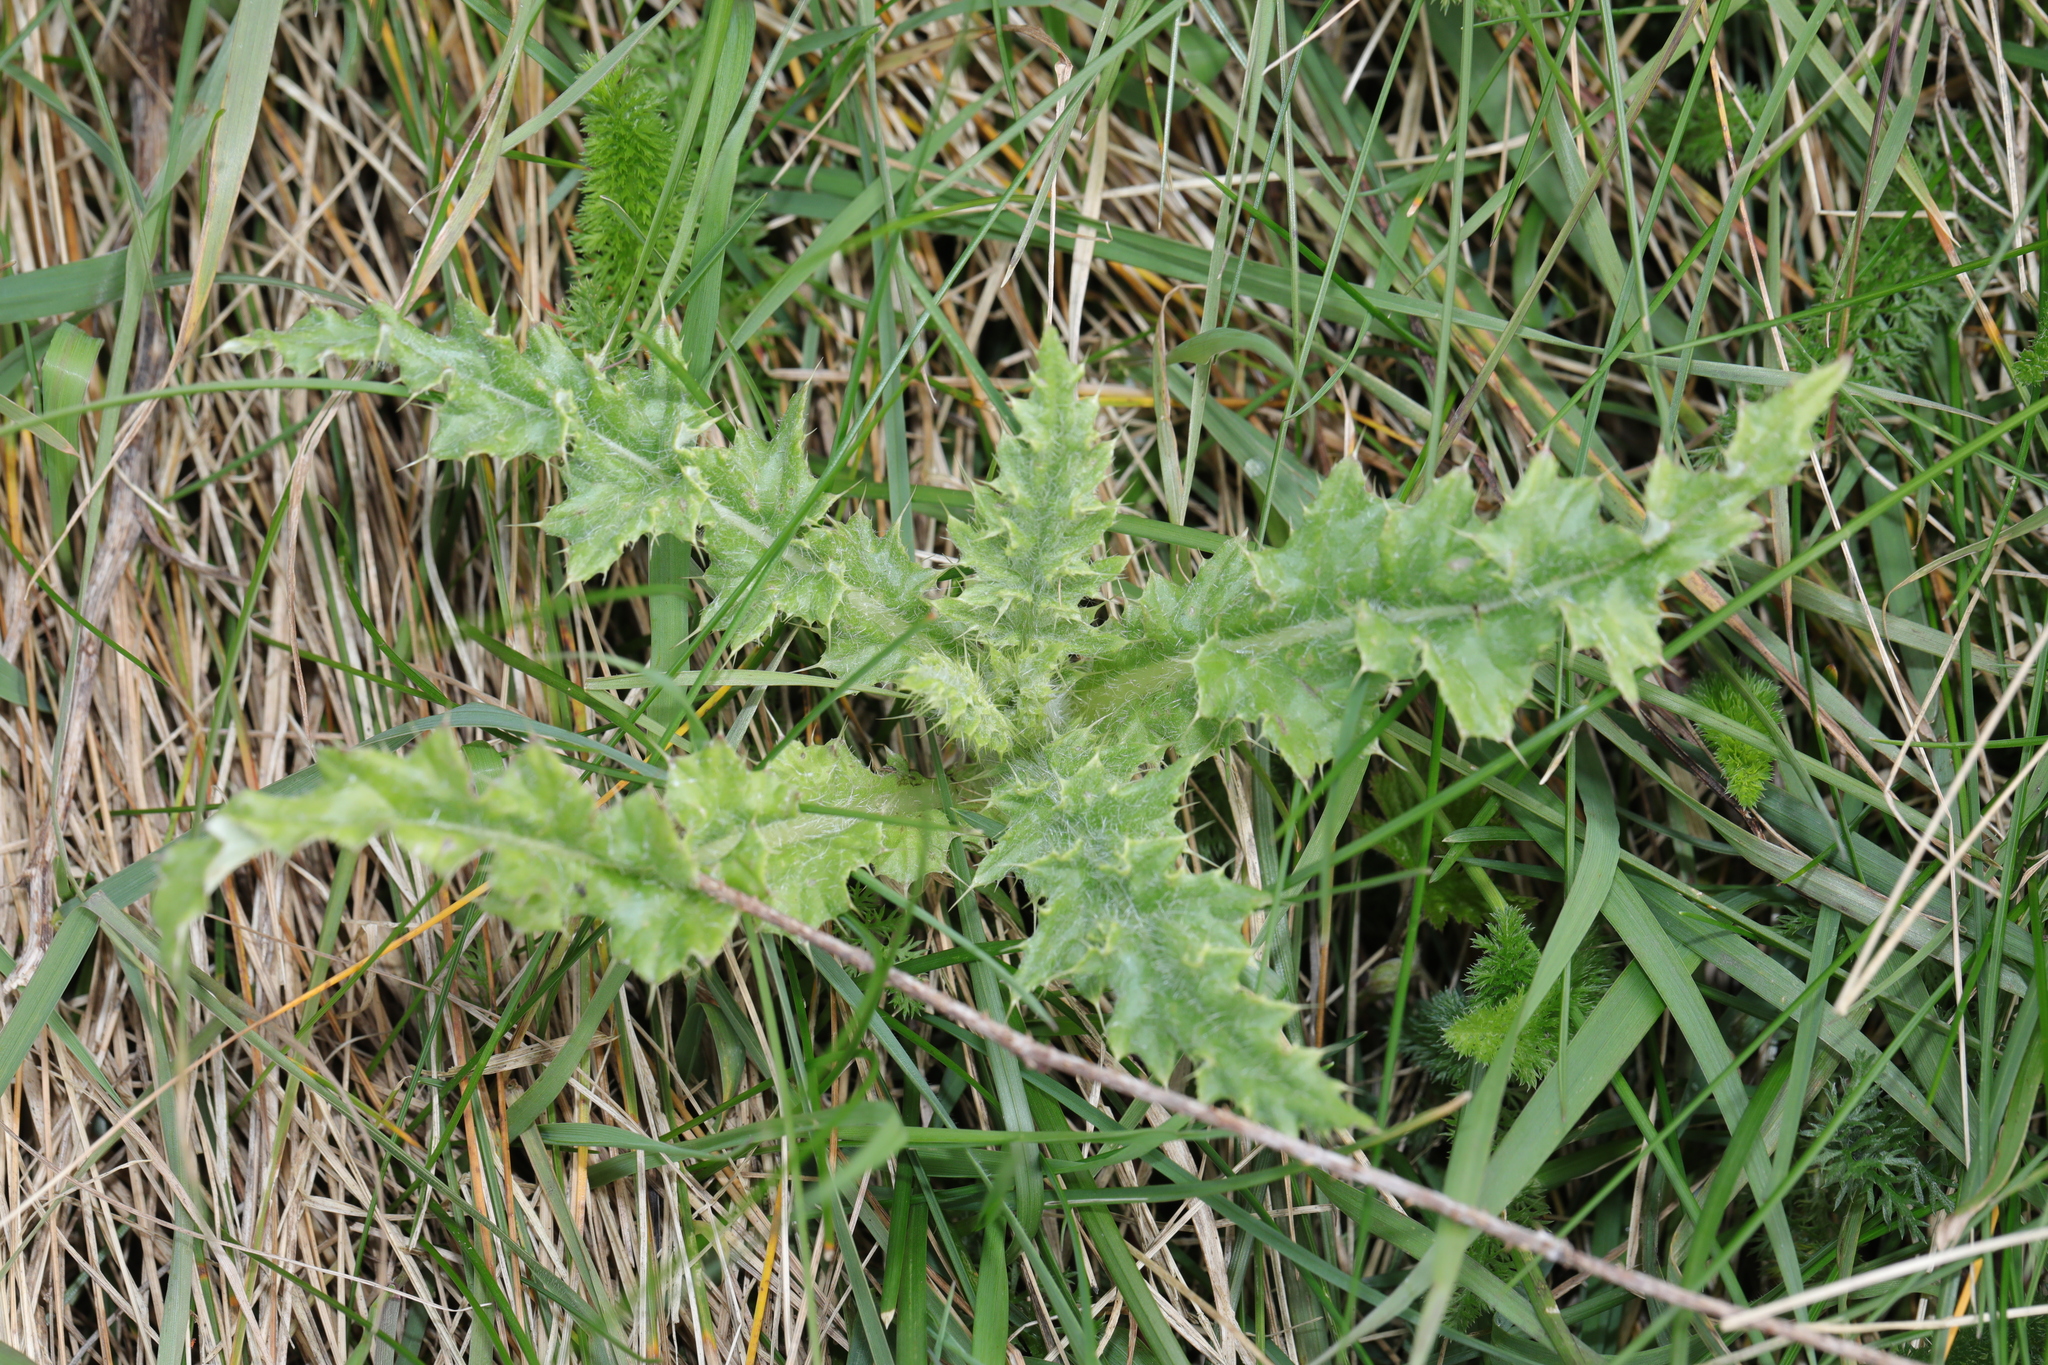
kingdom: Plantae
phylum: Tracheophyta
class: Magnoliopsida
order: Asterales
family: Asteraceae
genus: Cirsium
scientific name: Cirsium arvense
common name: Creeping thistle
